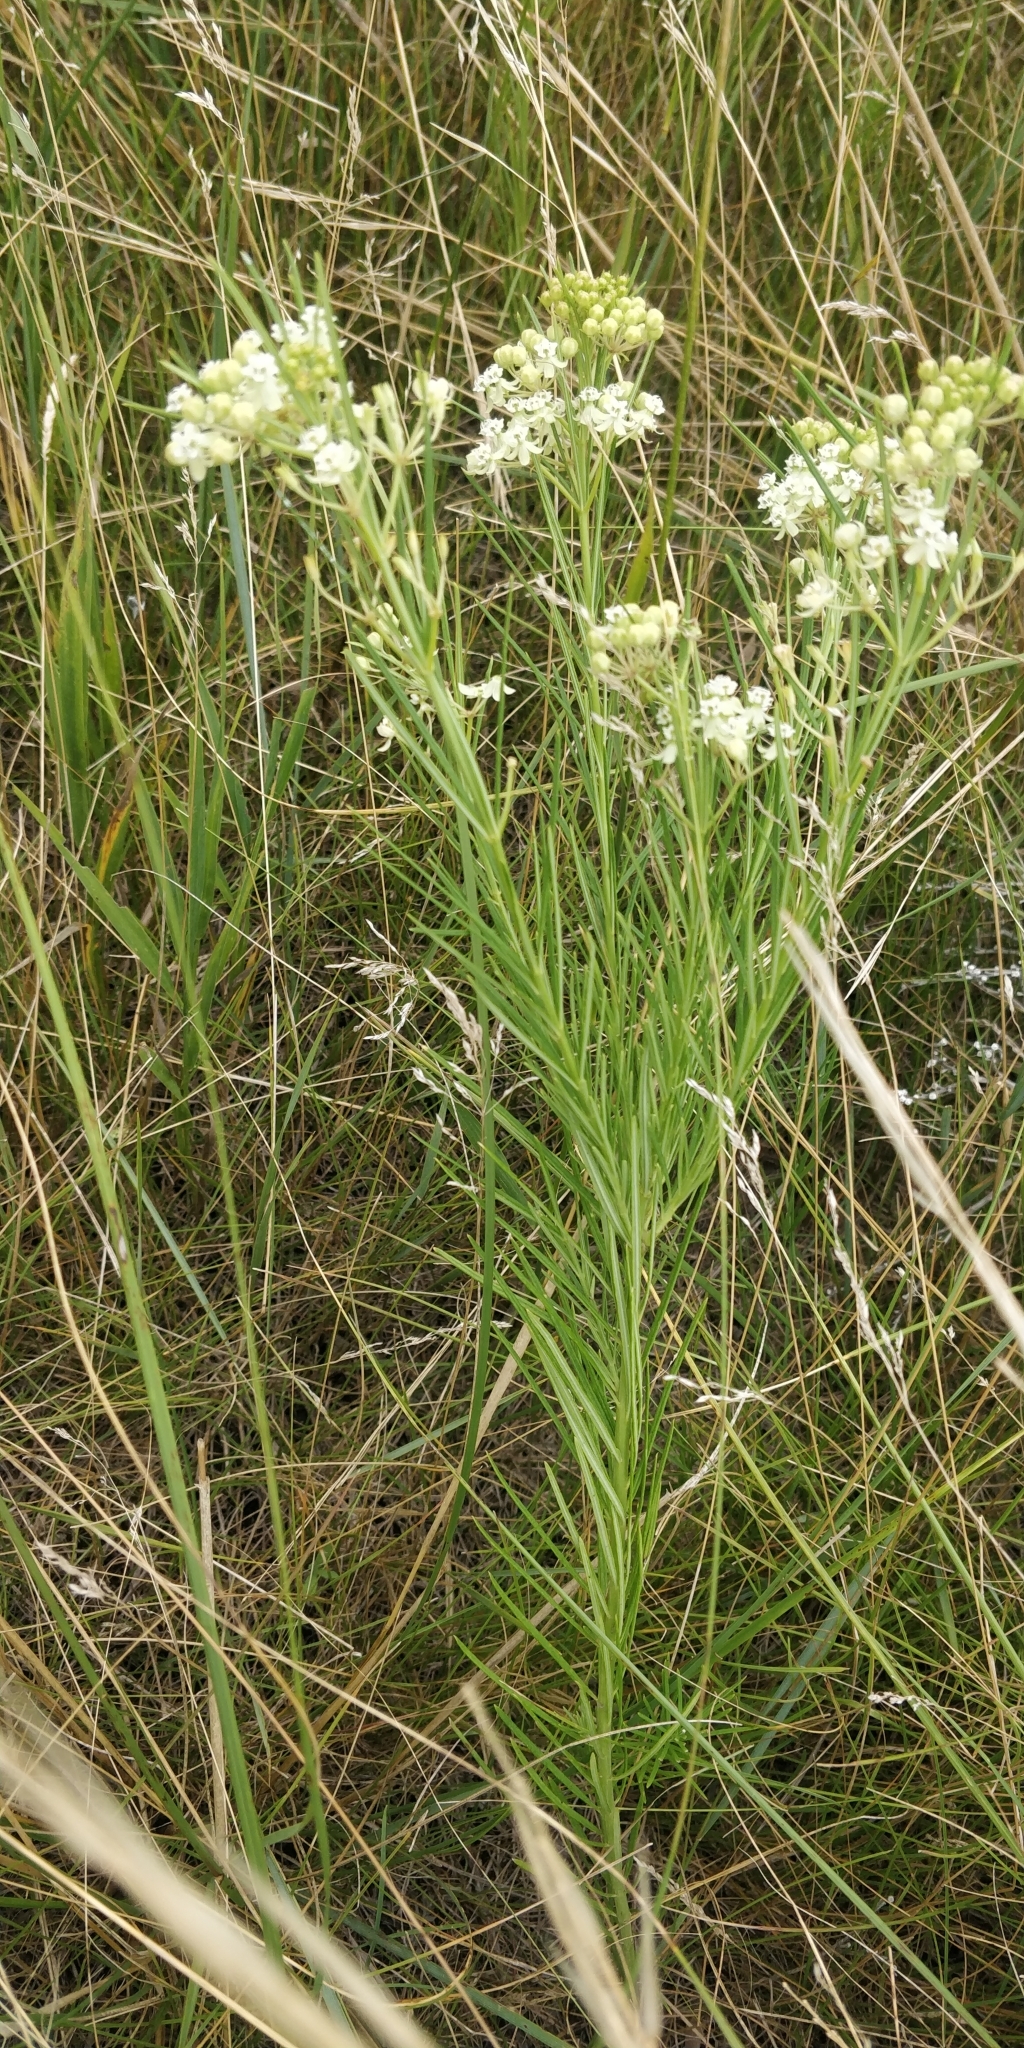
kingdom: Plantae
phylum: Tracheophyta
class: Magnoliopsida
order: Gentianales
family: Apocynaceae
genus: Asclepias
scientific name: Asclepias verticillata
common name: Eastern whorled milkweed
